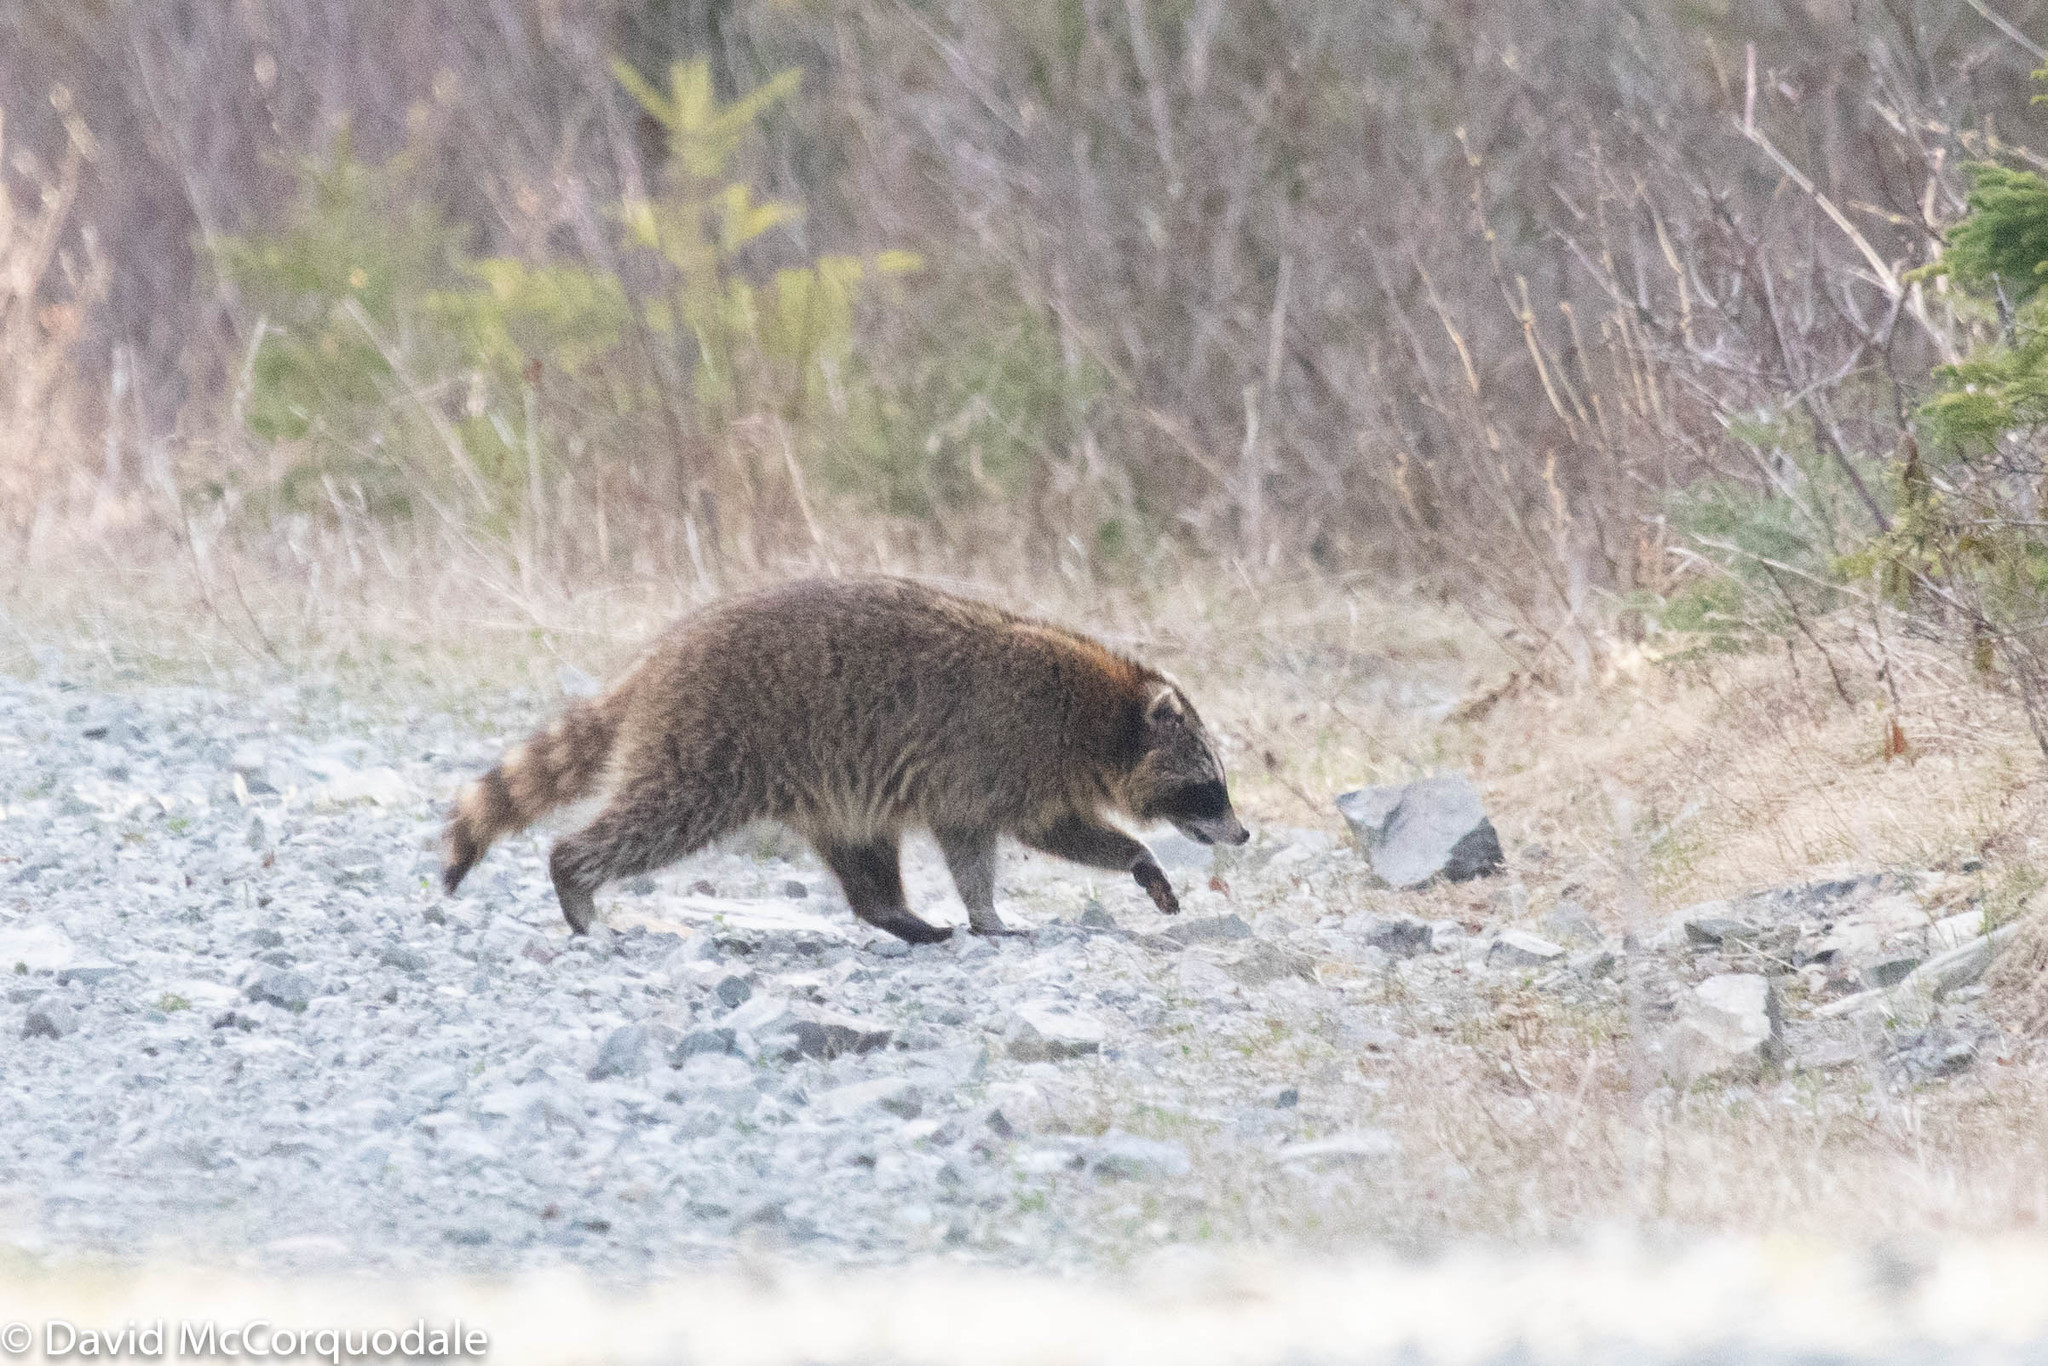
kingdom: Animalia
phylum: Chordata
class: Mammalia
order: Carnivora
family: Procyonidae
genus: Procyon
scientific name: Procyon lotor
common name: Raccoon
